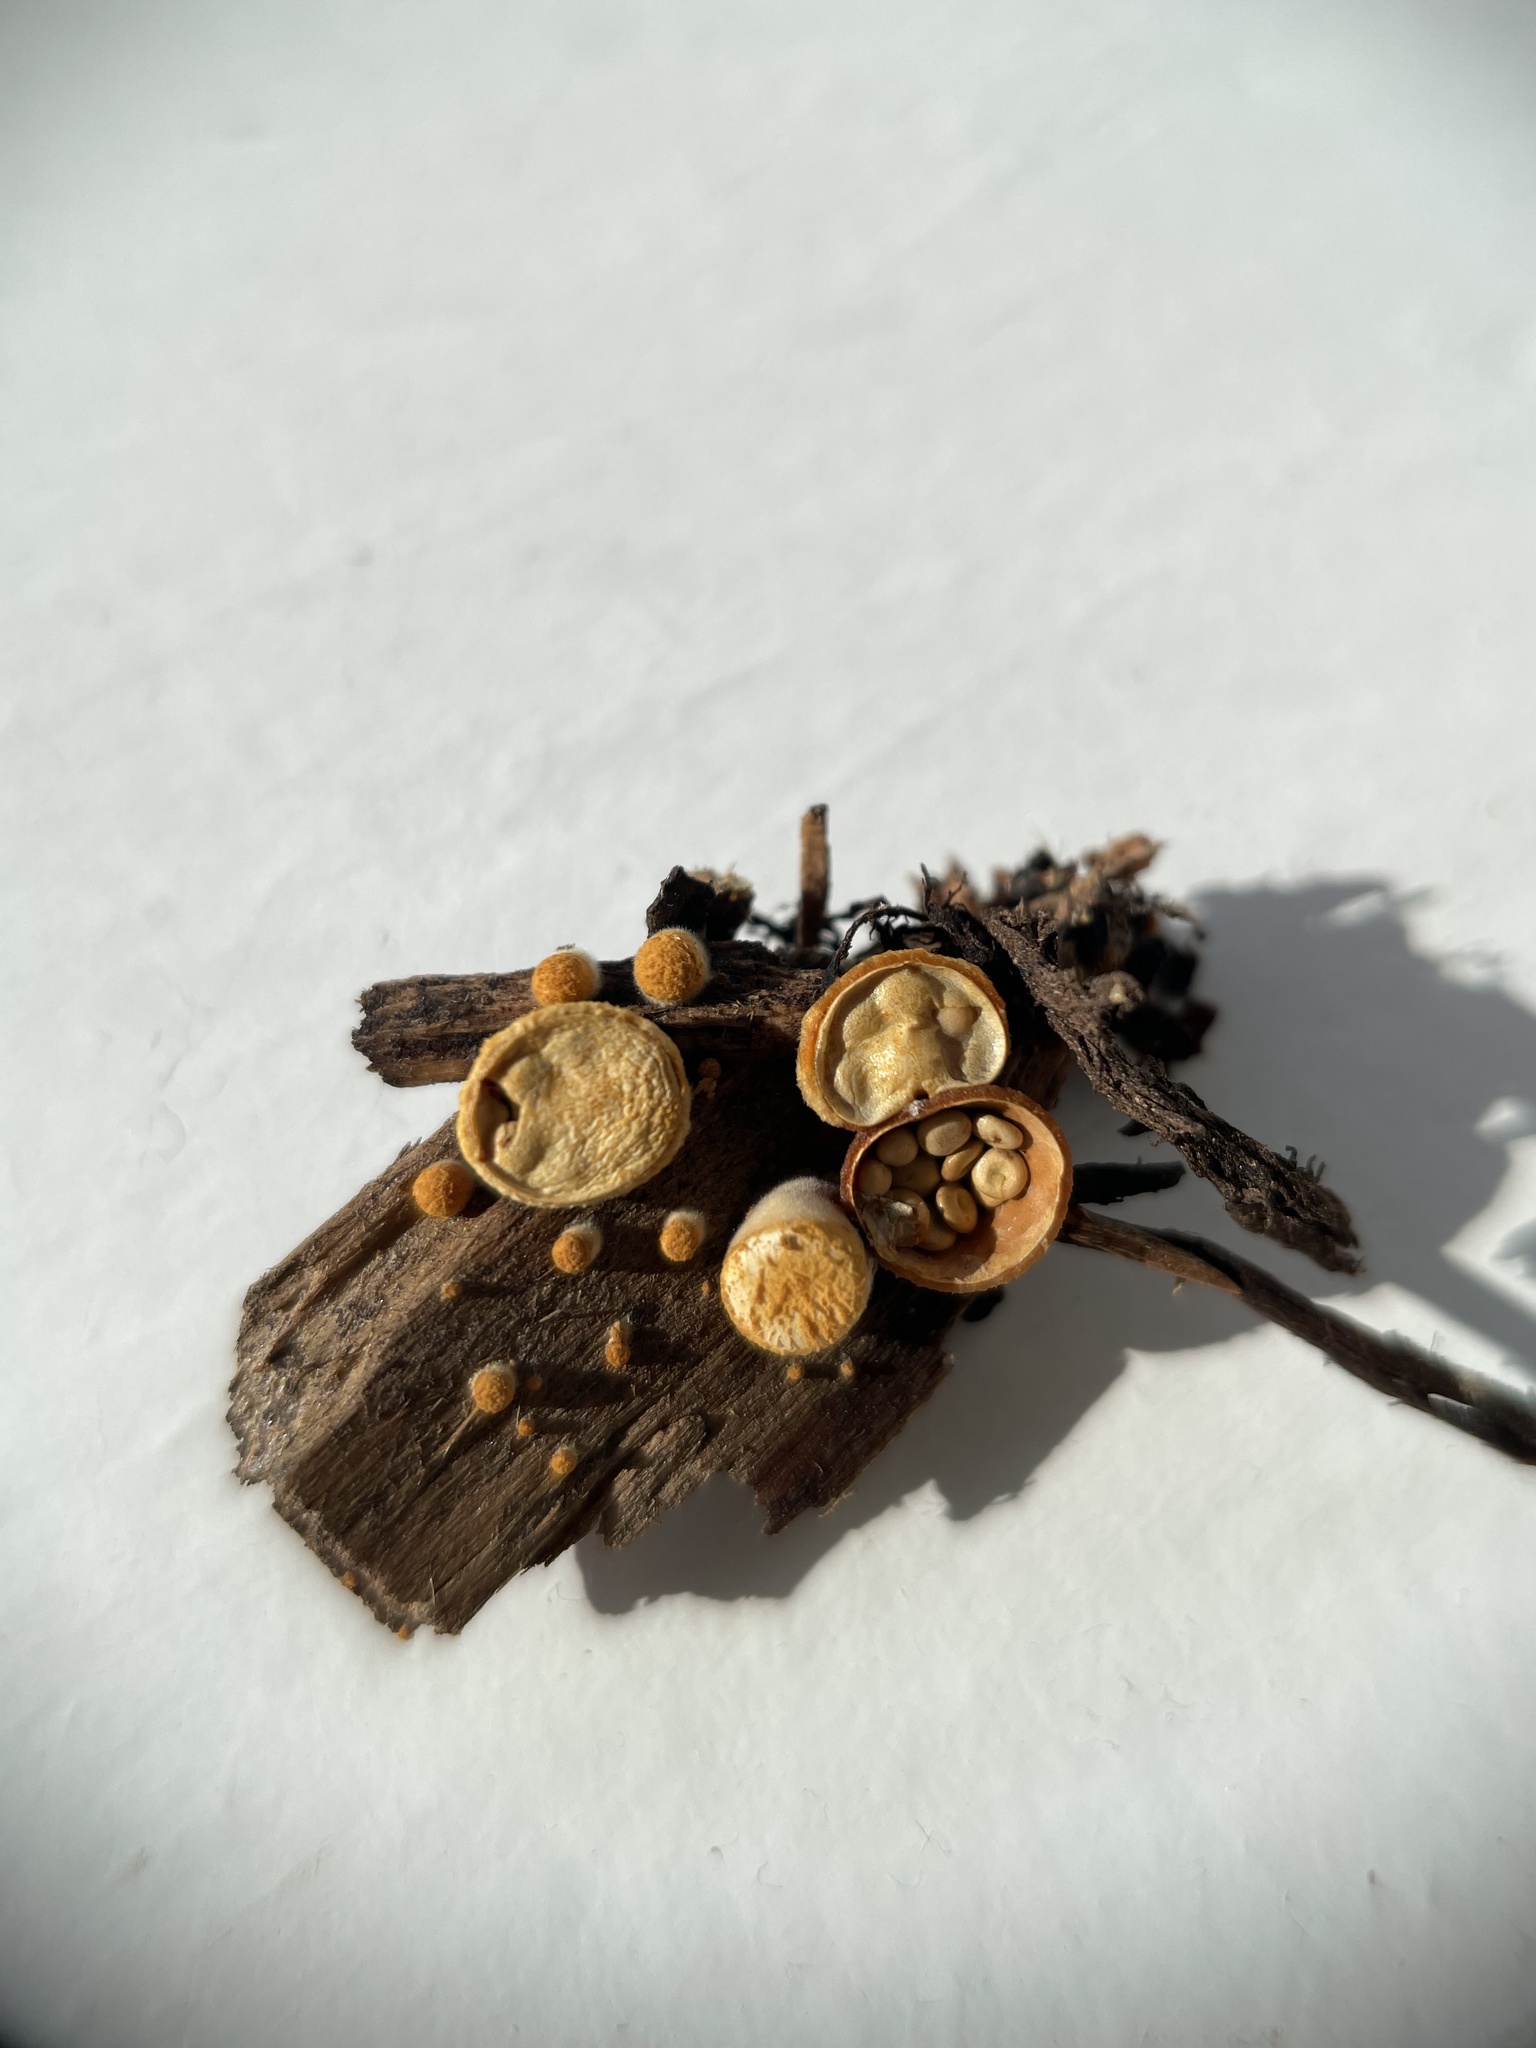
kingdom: Fungi
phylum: Basidiomycota
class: Agaricomycetes
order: Agaricales
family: Nidulariaceae
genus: Crucibulum
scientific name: Crucibulum simile
